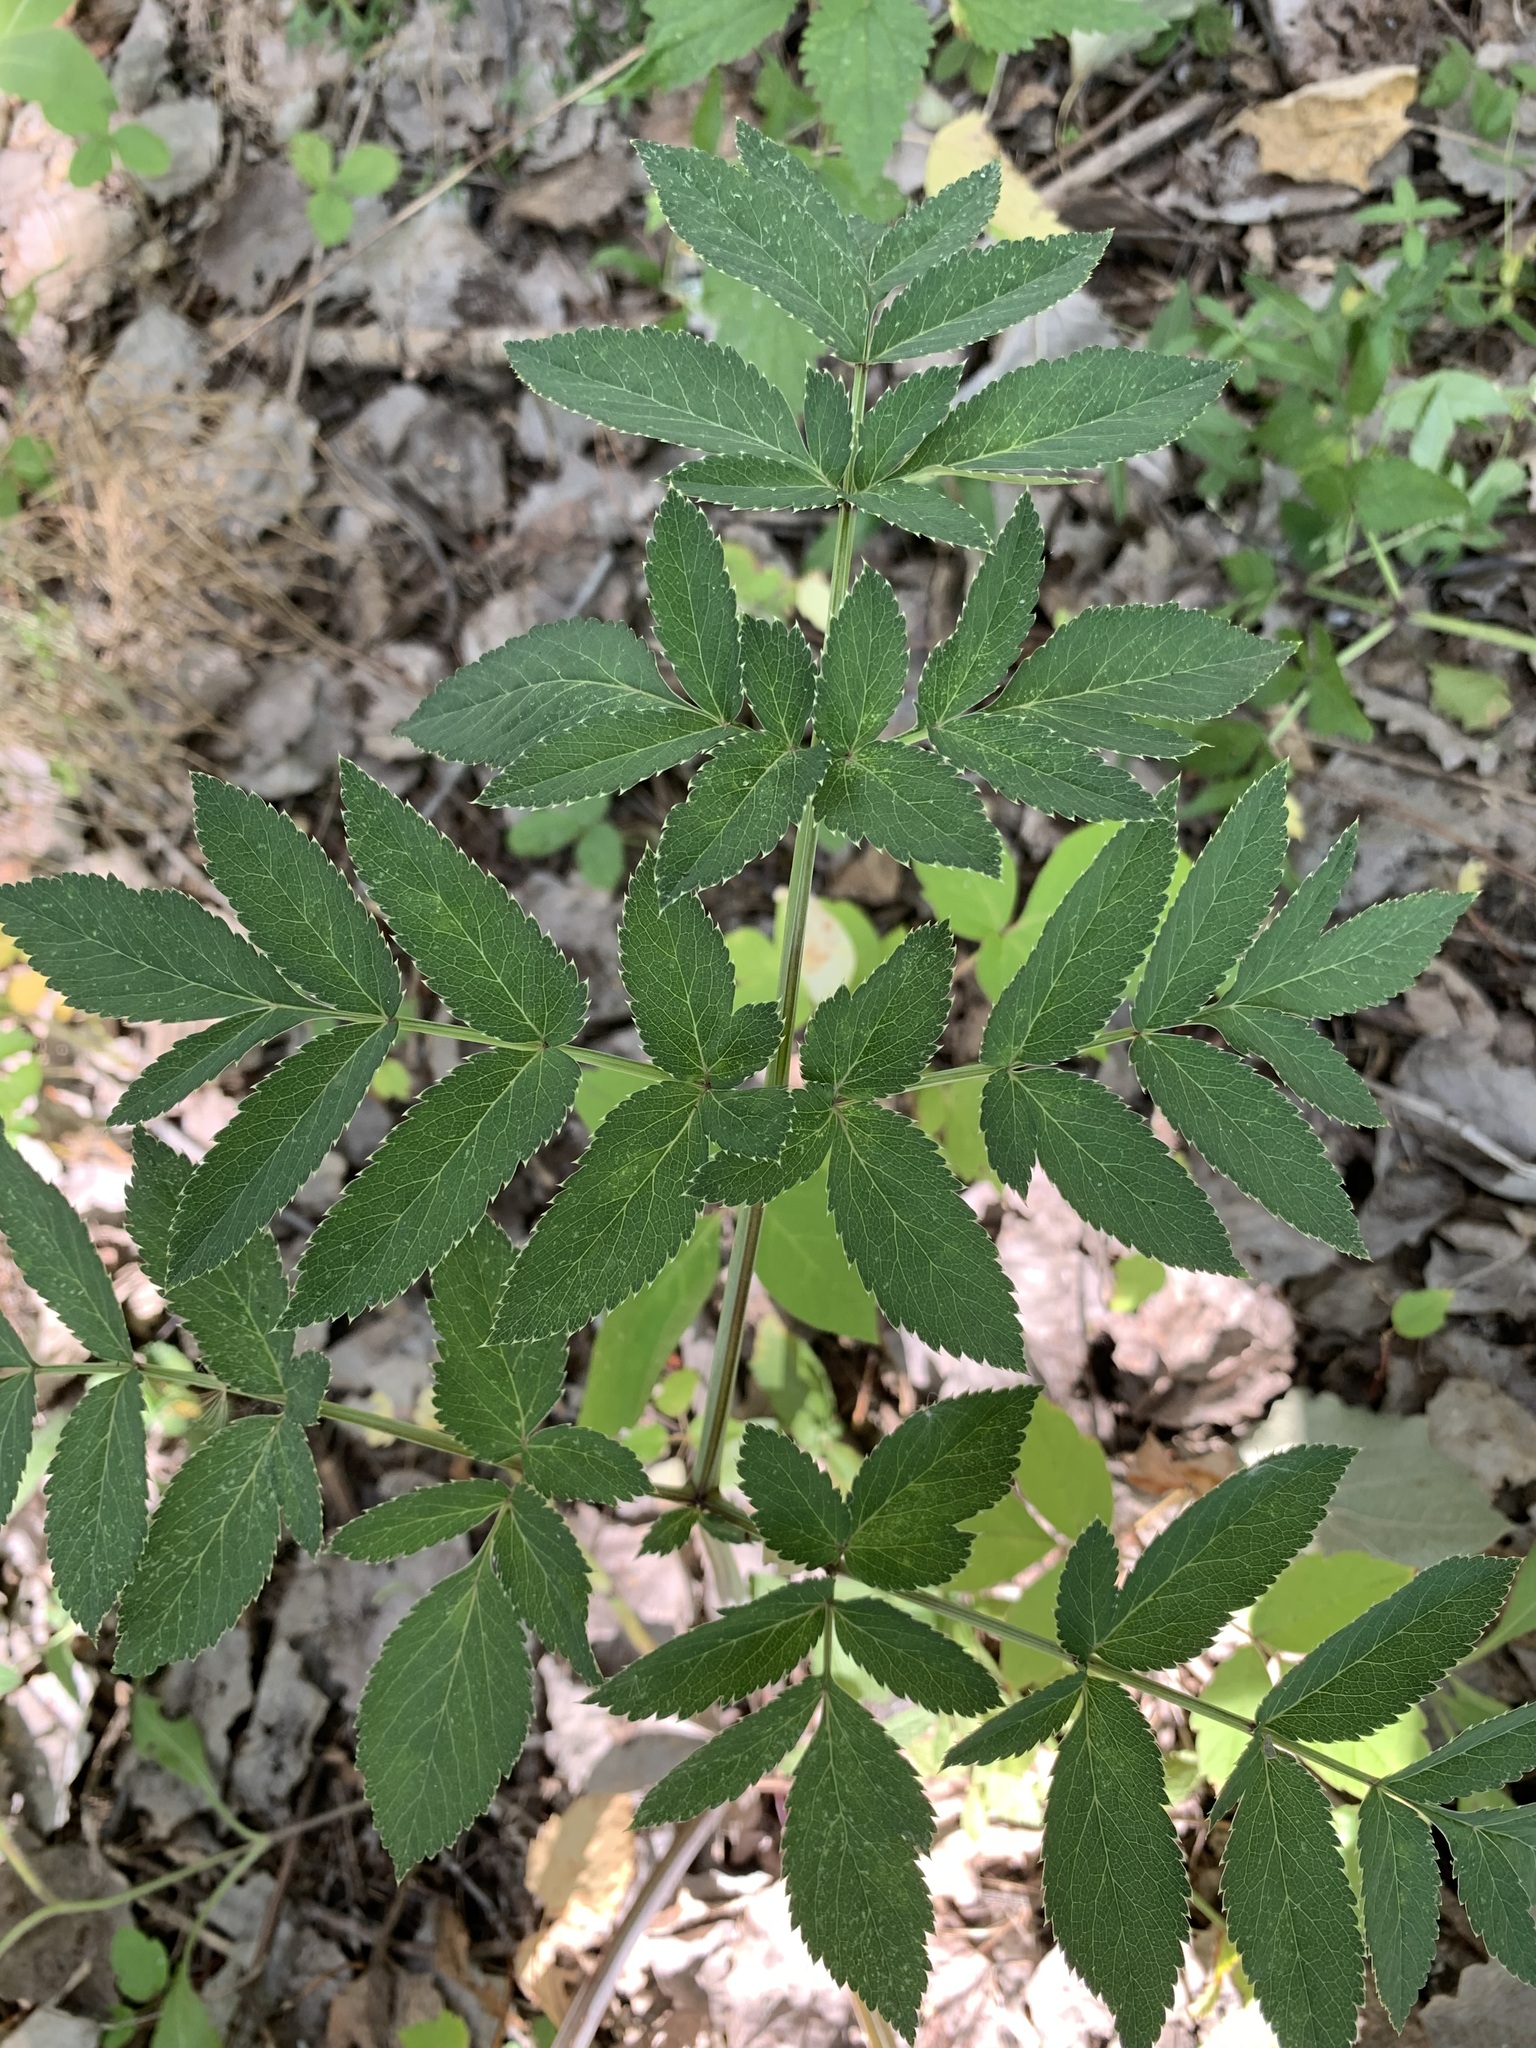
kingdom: Plantae
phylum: Tracheophyta
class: Magnoliopsida
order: Apiales
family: Apiaceae
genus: Angelica
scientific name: Angelica sylvestris
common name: Wild angelica
